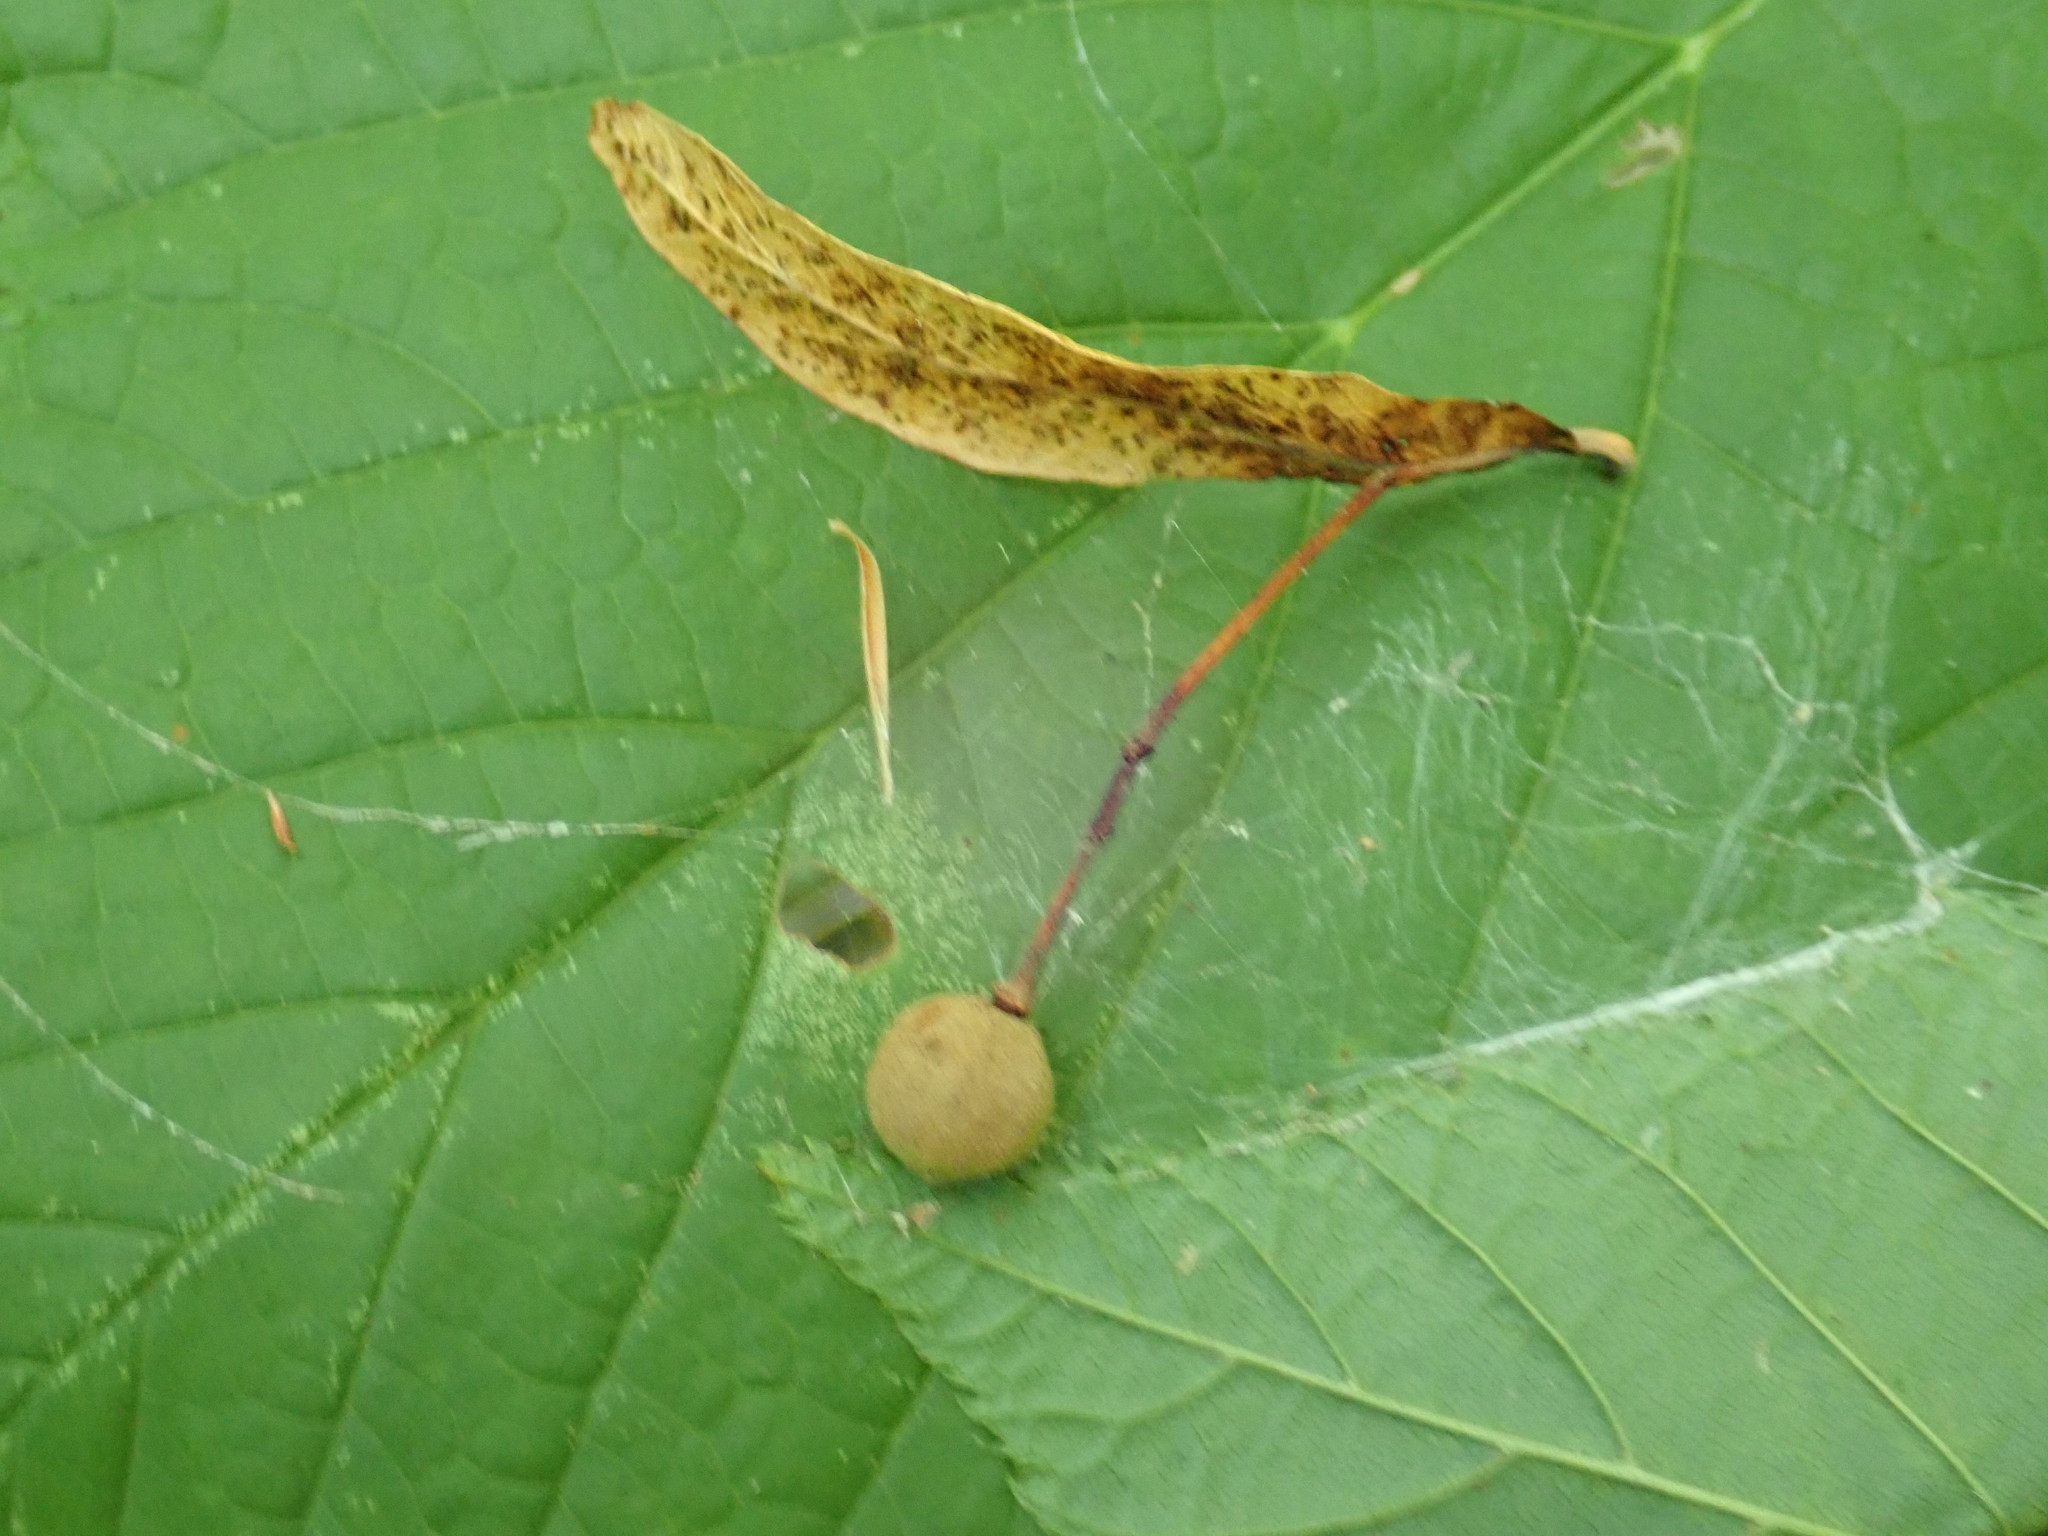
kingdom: Plantae
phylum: Tracheophyta
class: Magnoliopsida
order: Malvales
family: Malvaceae
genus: Tilia
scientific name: Tilia
